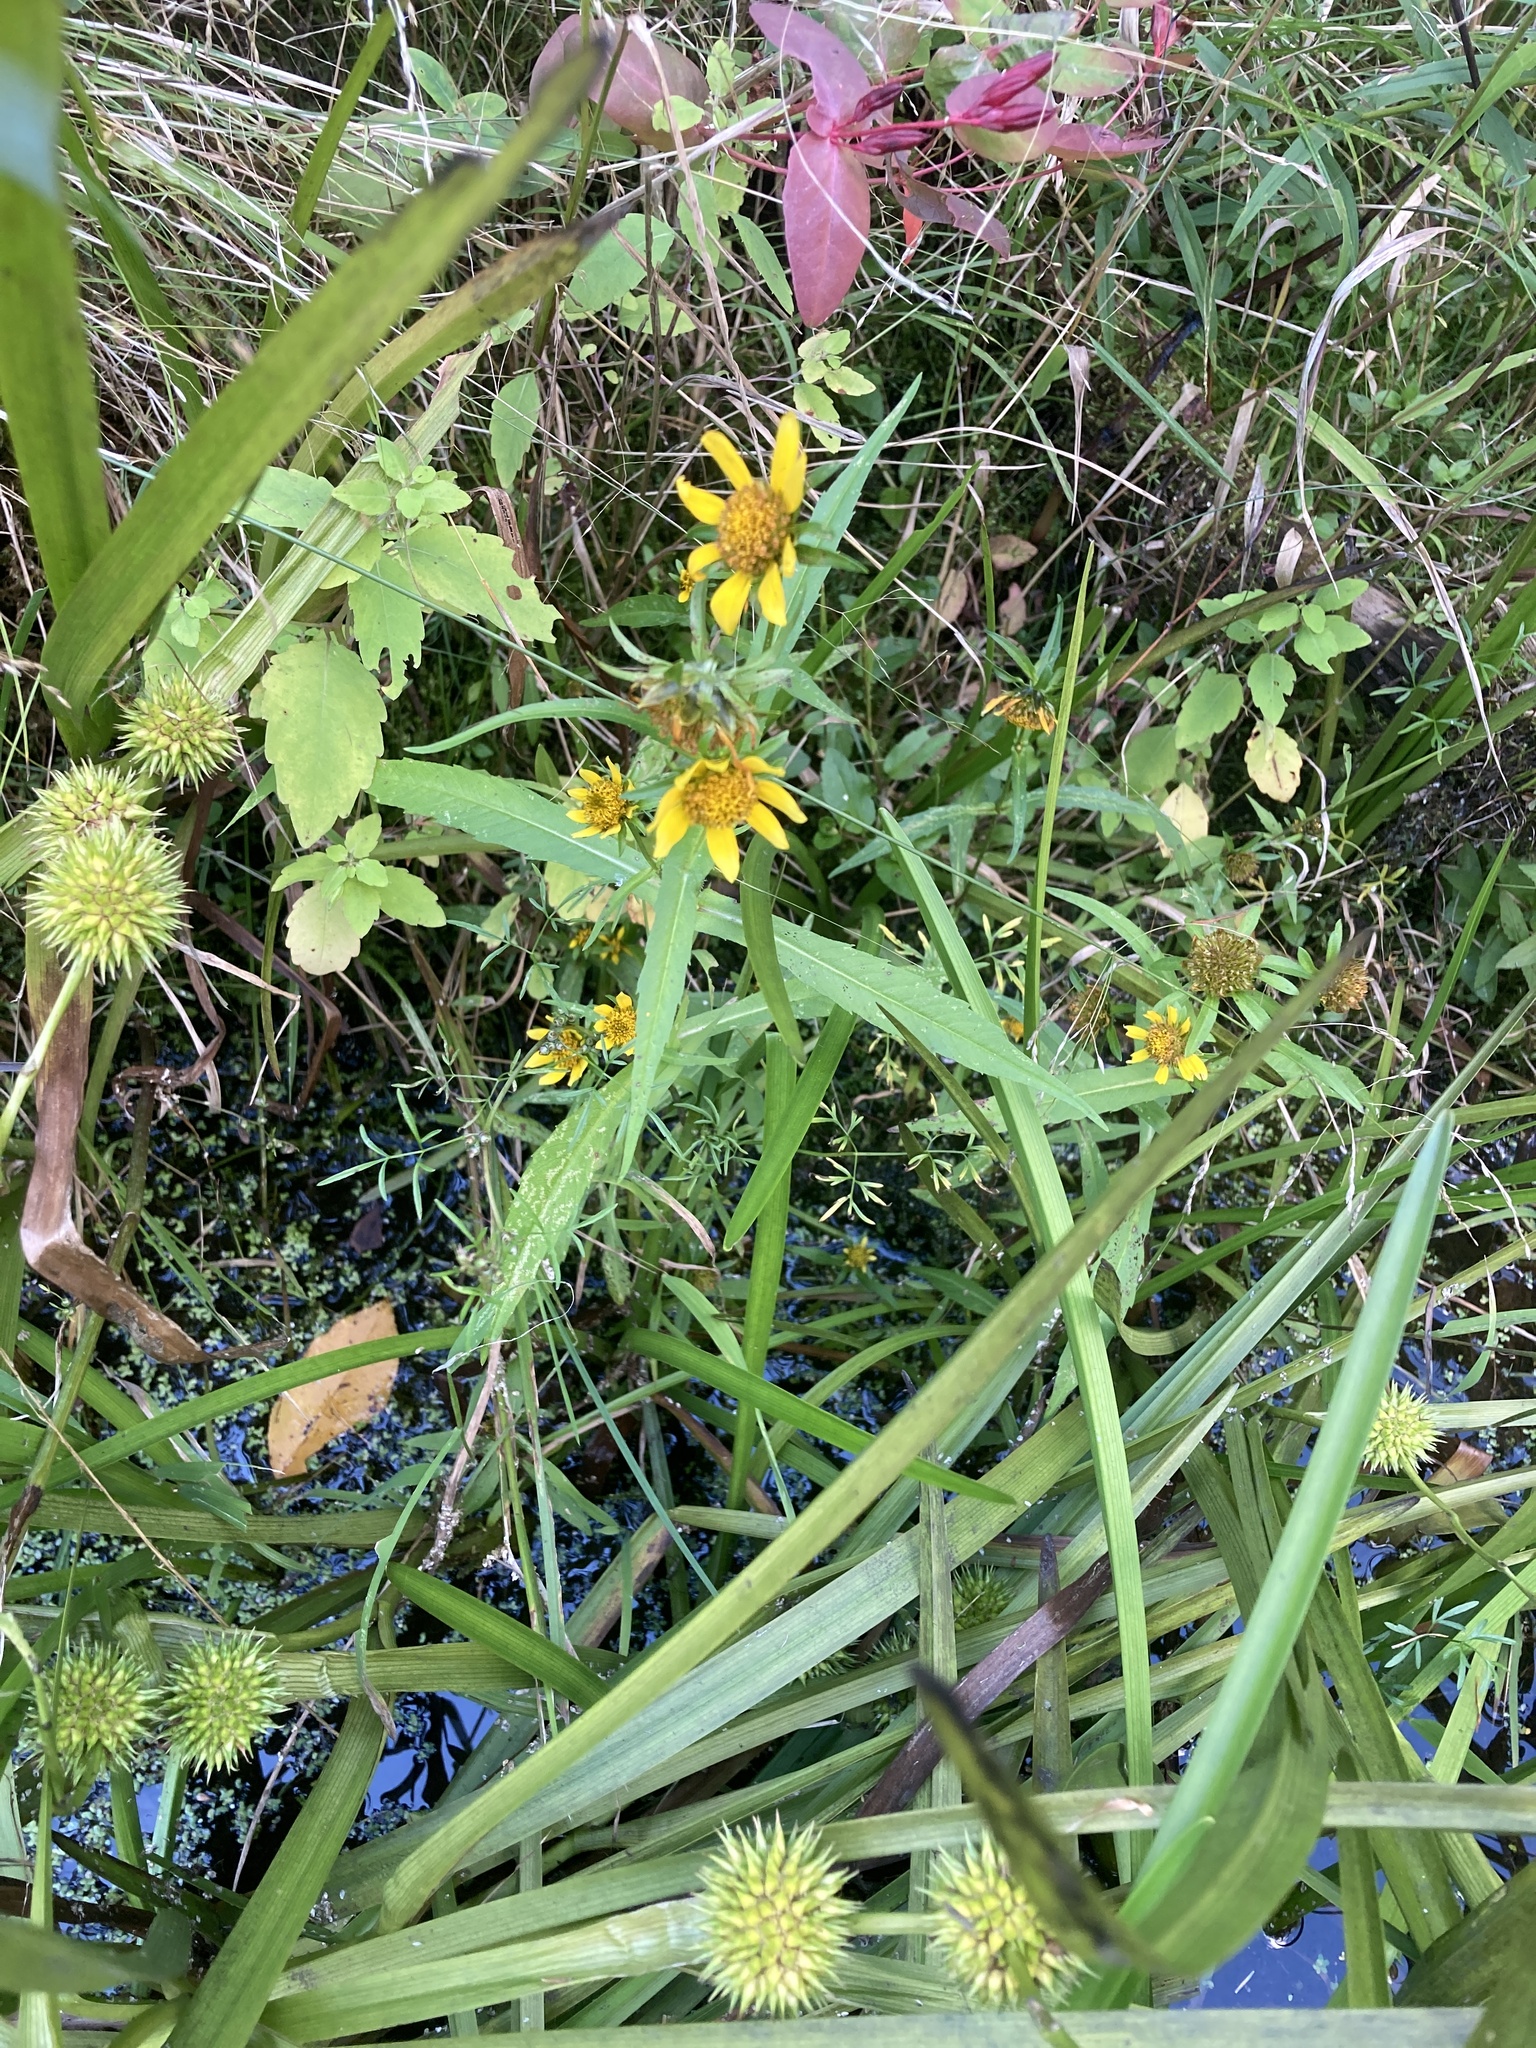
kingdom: Plantae
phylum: Tracheophyta
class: Magnoliopsida
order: Asterales
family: Asteraceae
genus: Bidens
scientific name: Bidens cernua
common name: Nodding bur-marigold
